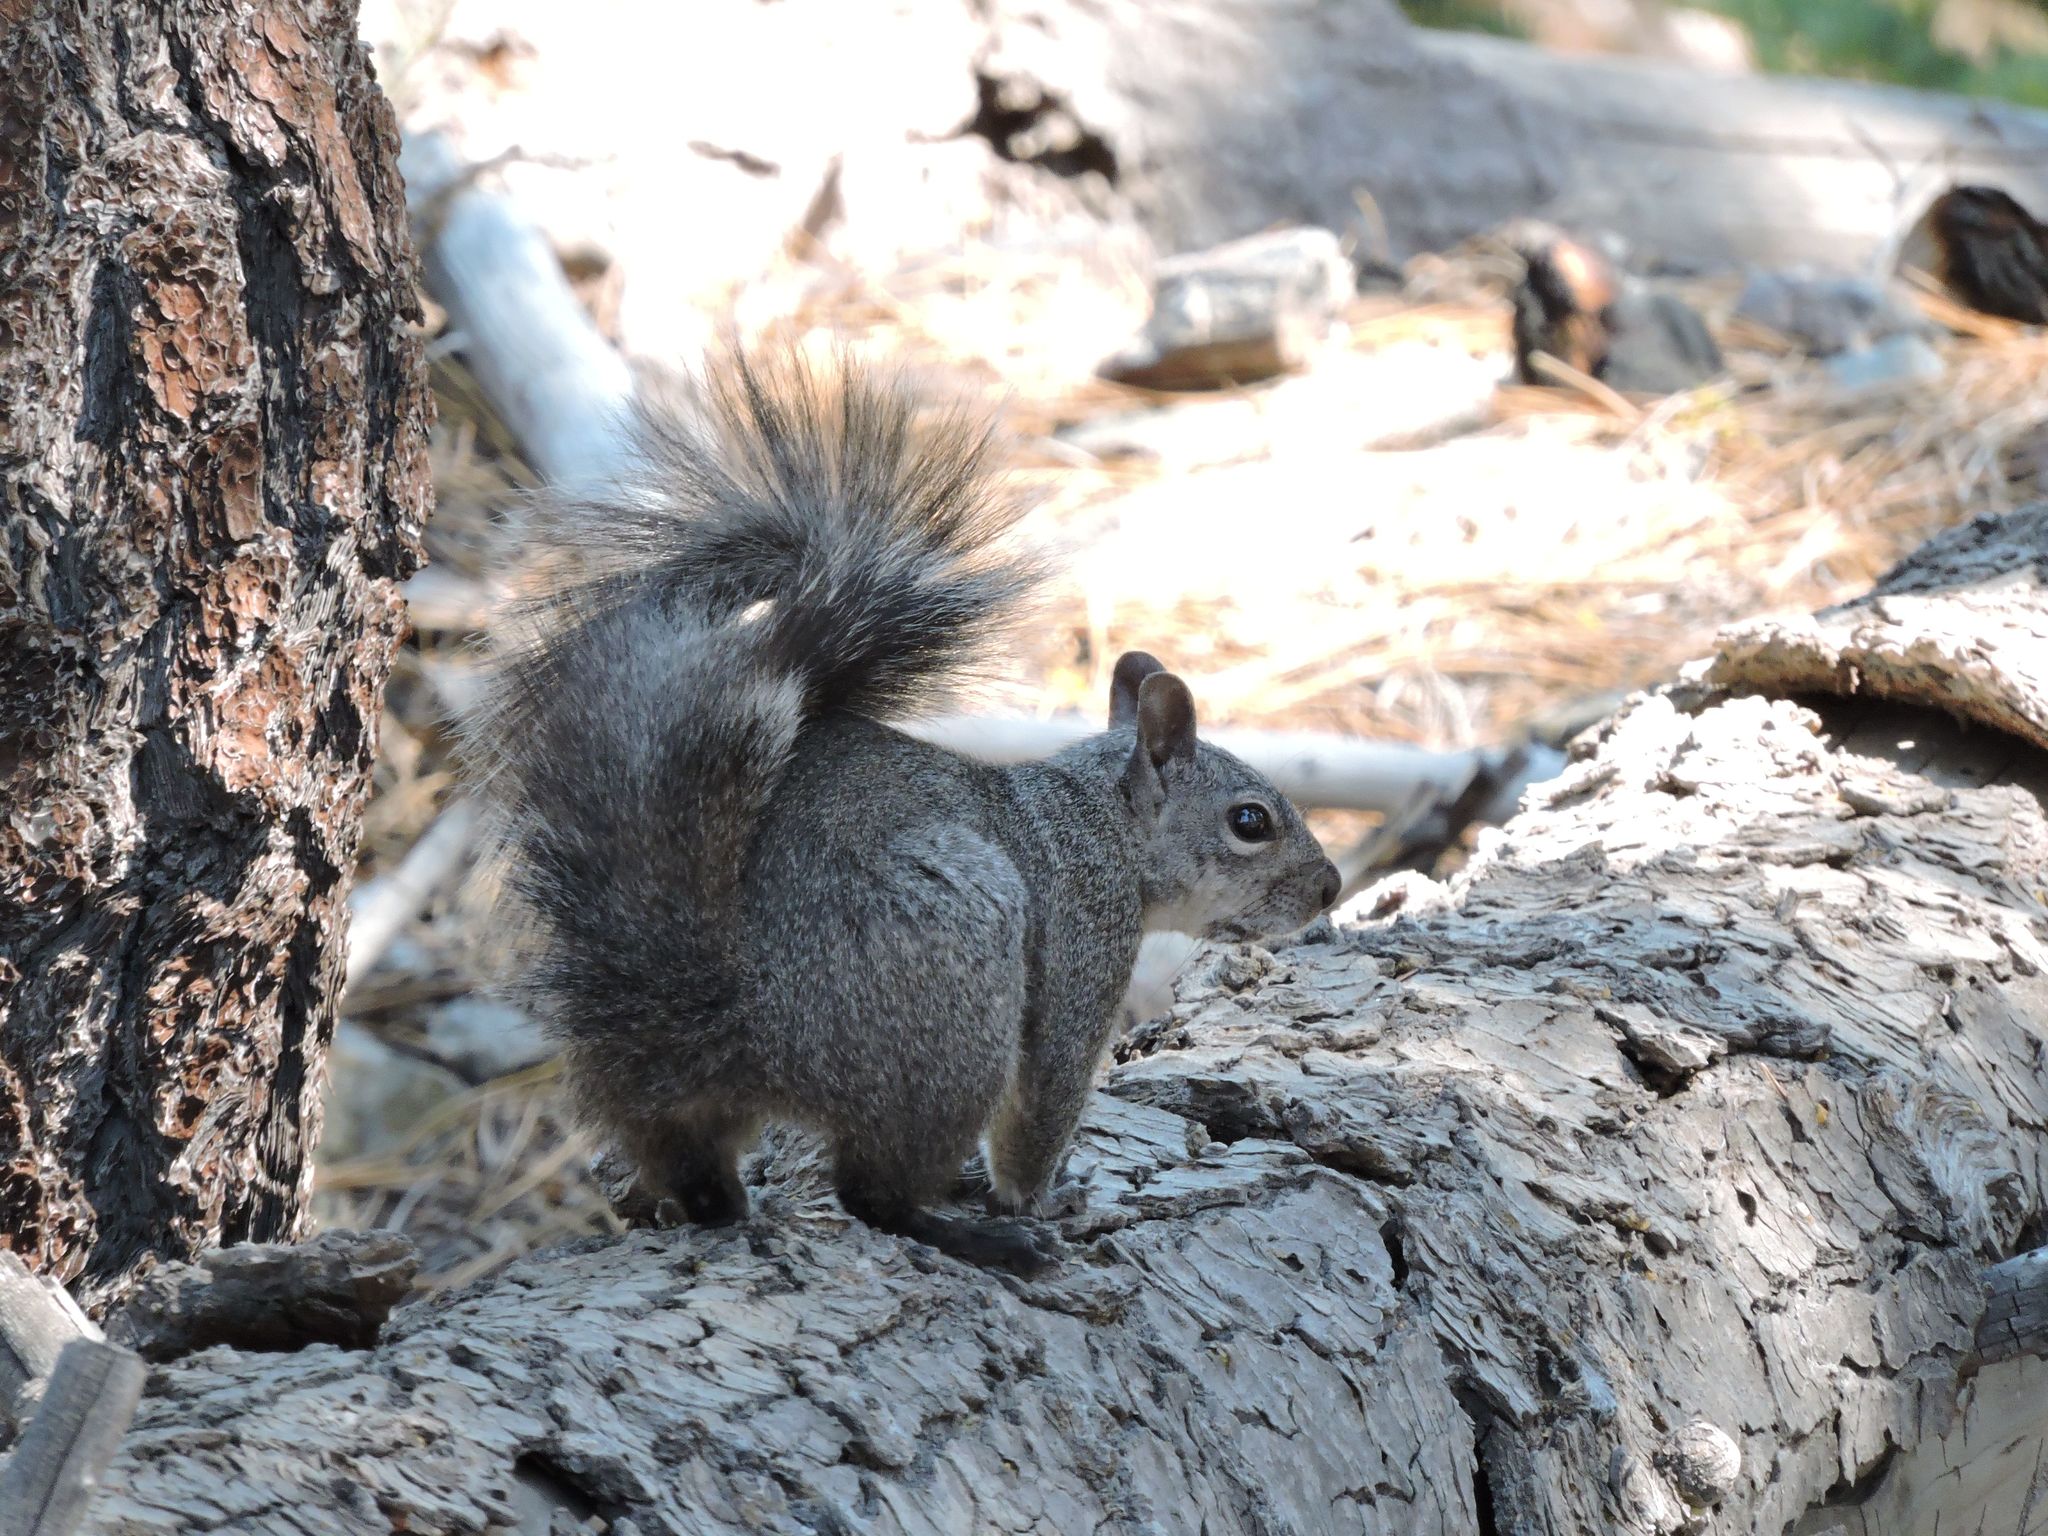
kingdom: Animalia
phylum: Chordata
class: Mammalia
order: Rodentia
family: Sciuridae
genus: Sciurus
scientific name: Sciurus griseus
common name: Western gray squirrel
